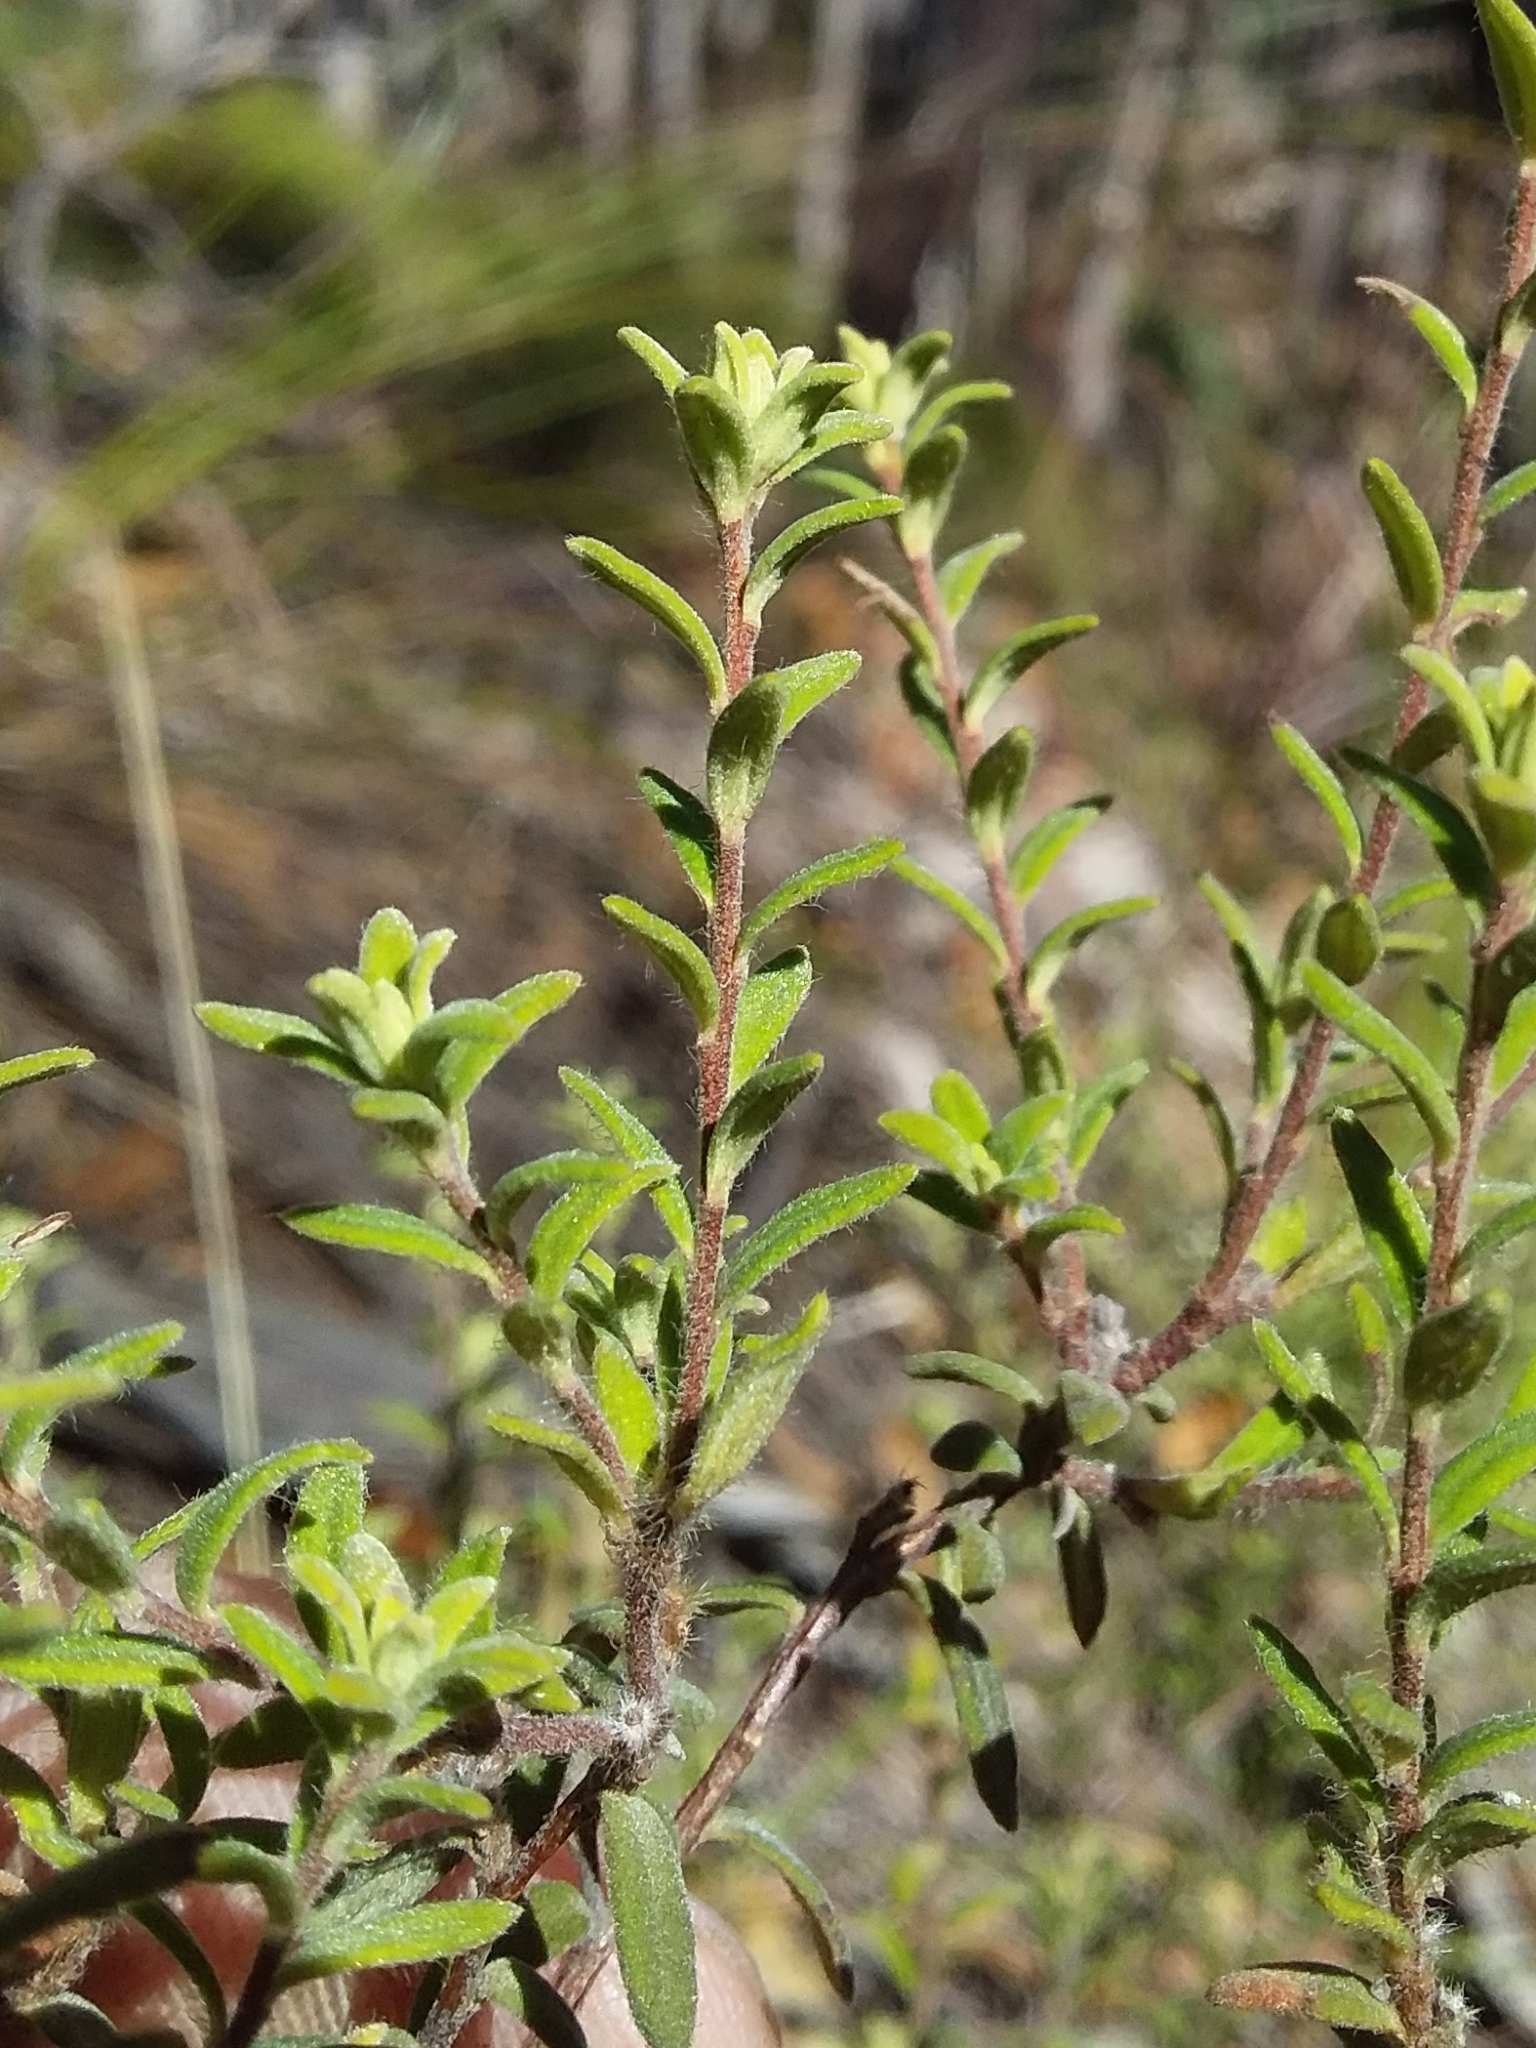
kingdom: Plantae
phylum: Tracheophyta
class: Magnoliopsida
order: Dilleniales
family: Dilleniaceae
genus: Hibbertia
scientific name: Hibbertia crinita
